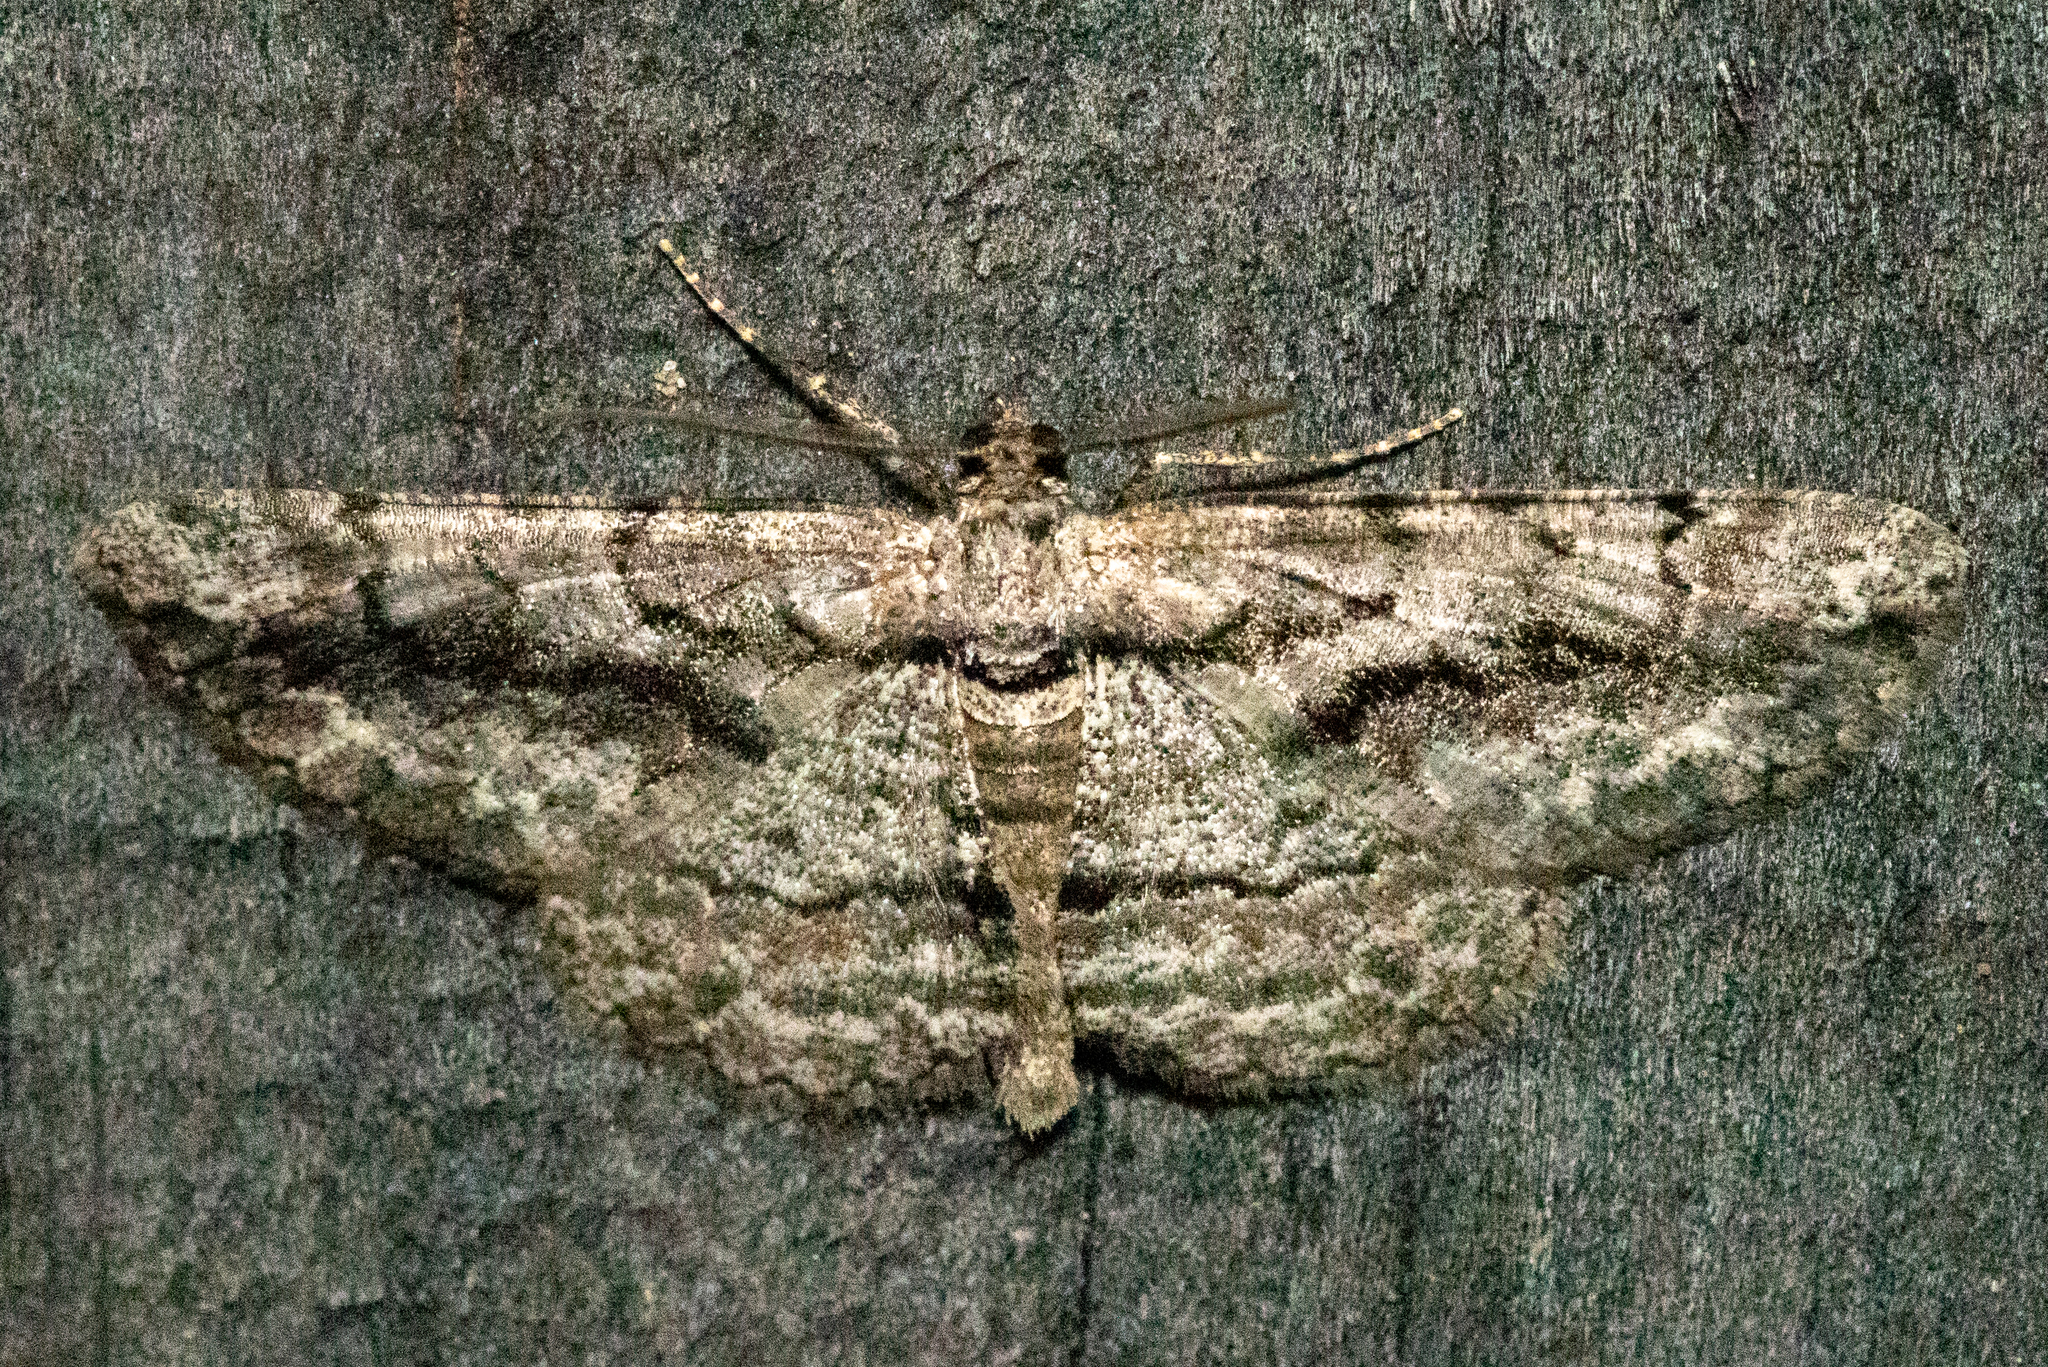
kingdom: Animalia
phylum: Arthropoda
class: Insecta
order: Lepidoptera
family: Geometridae
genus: Anavitrinella
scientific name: Anavitrinella pampinaria
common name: Common gray
